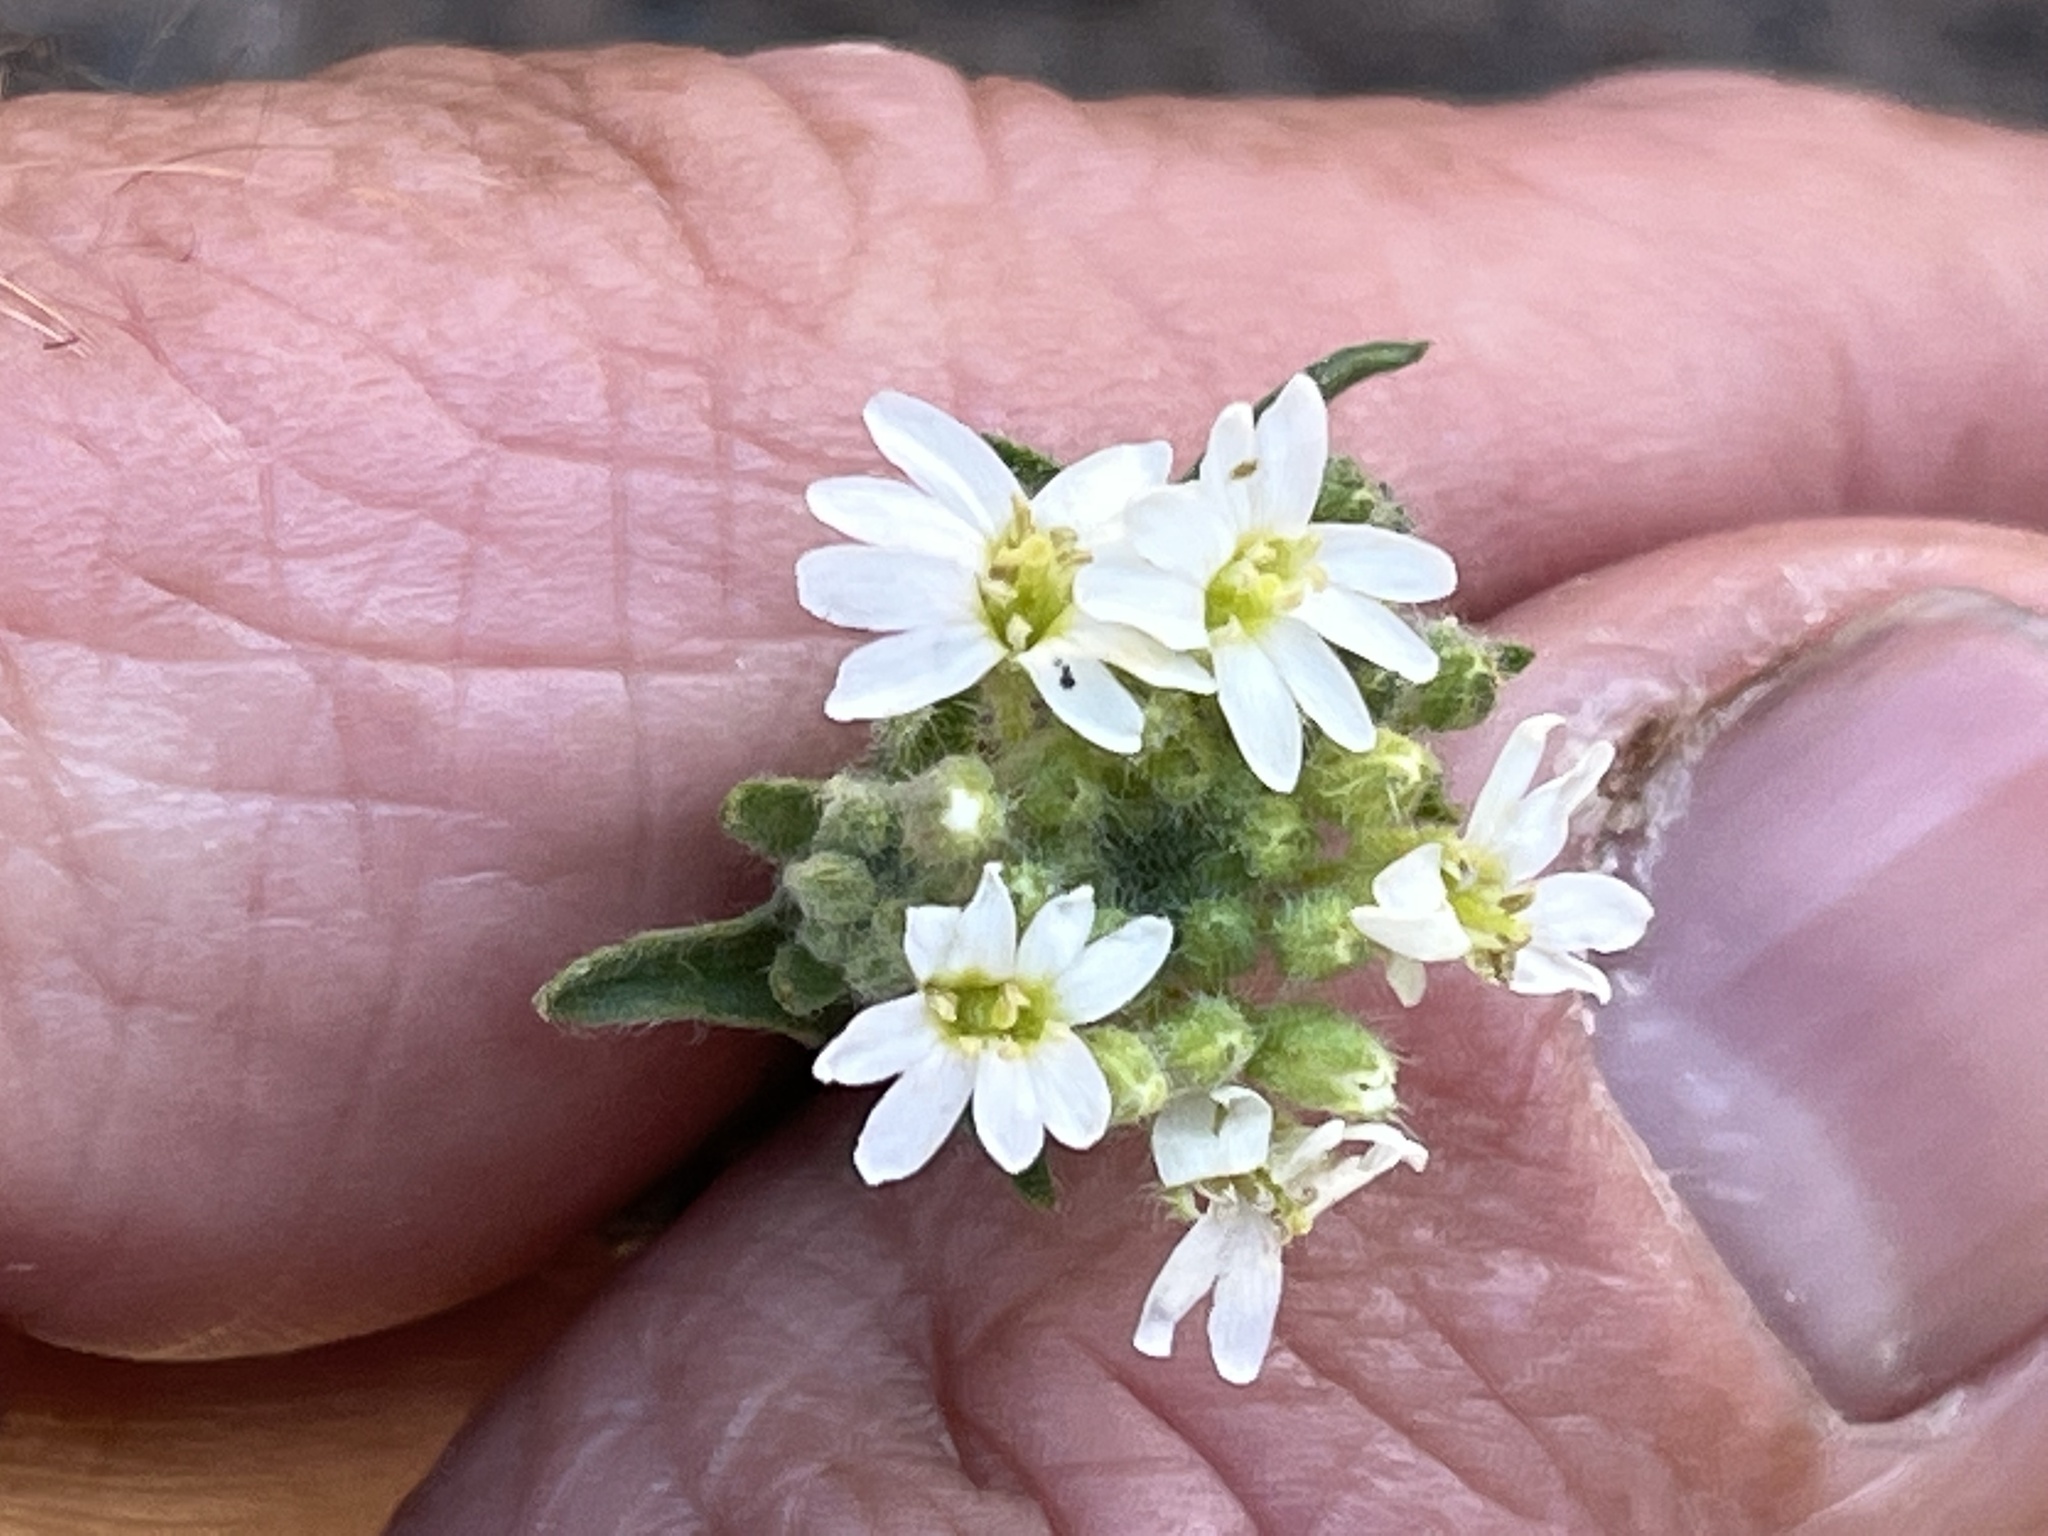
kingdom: Plantae
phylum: Tracheophyta
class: Magnoliopsida
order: Brassicales
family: Brassicaceae
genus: Berteroa
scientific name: Berteroa incana
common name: Hoary alison
